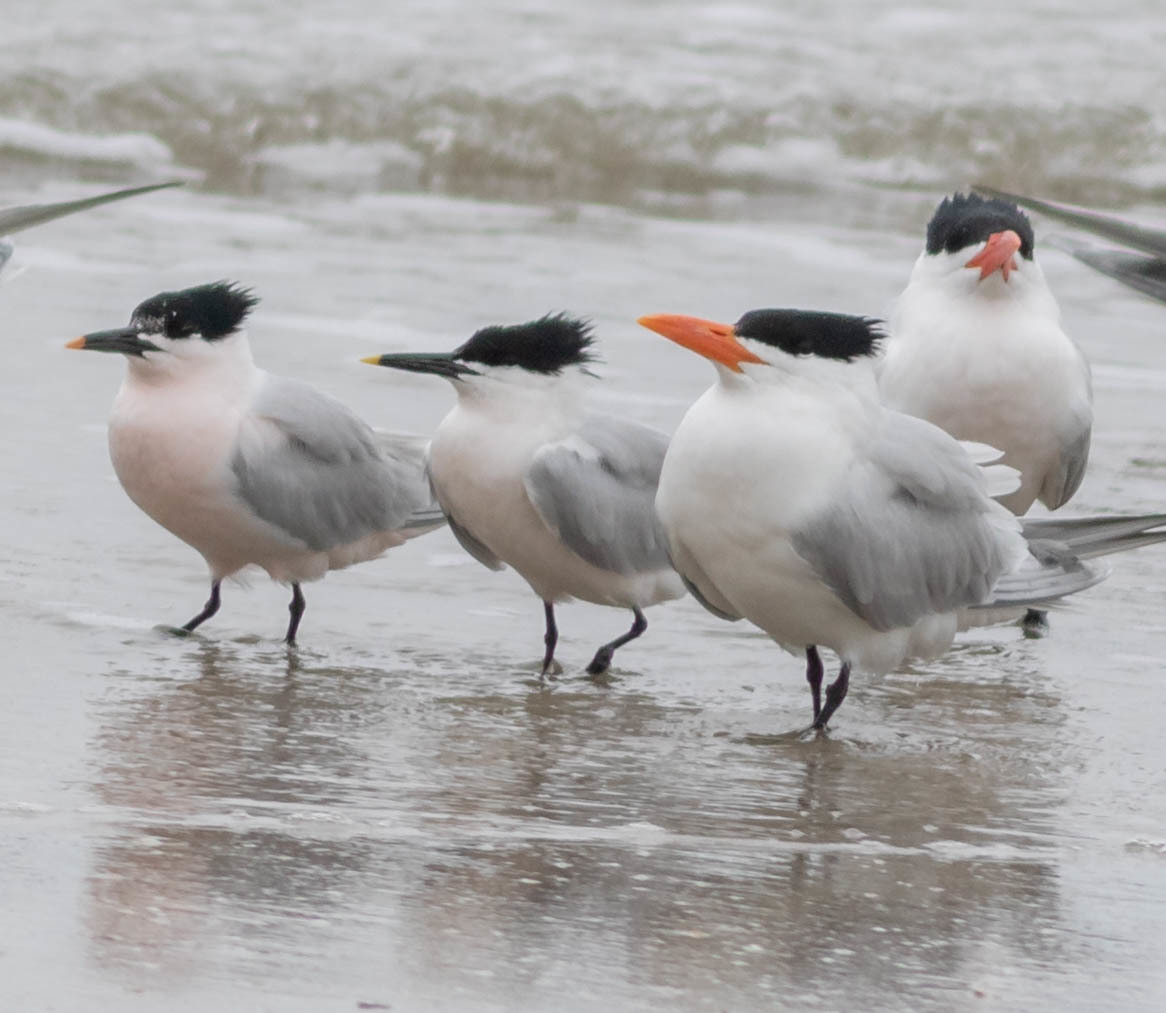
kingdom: Animalia
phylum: Chordata
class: Aves
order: Charadriiformes
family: Laridae
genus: Thalasseus
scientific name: Thalasseus maximus
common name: Royal tern
